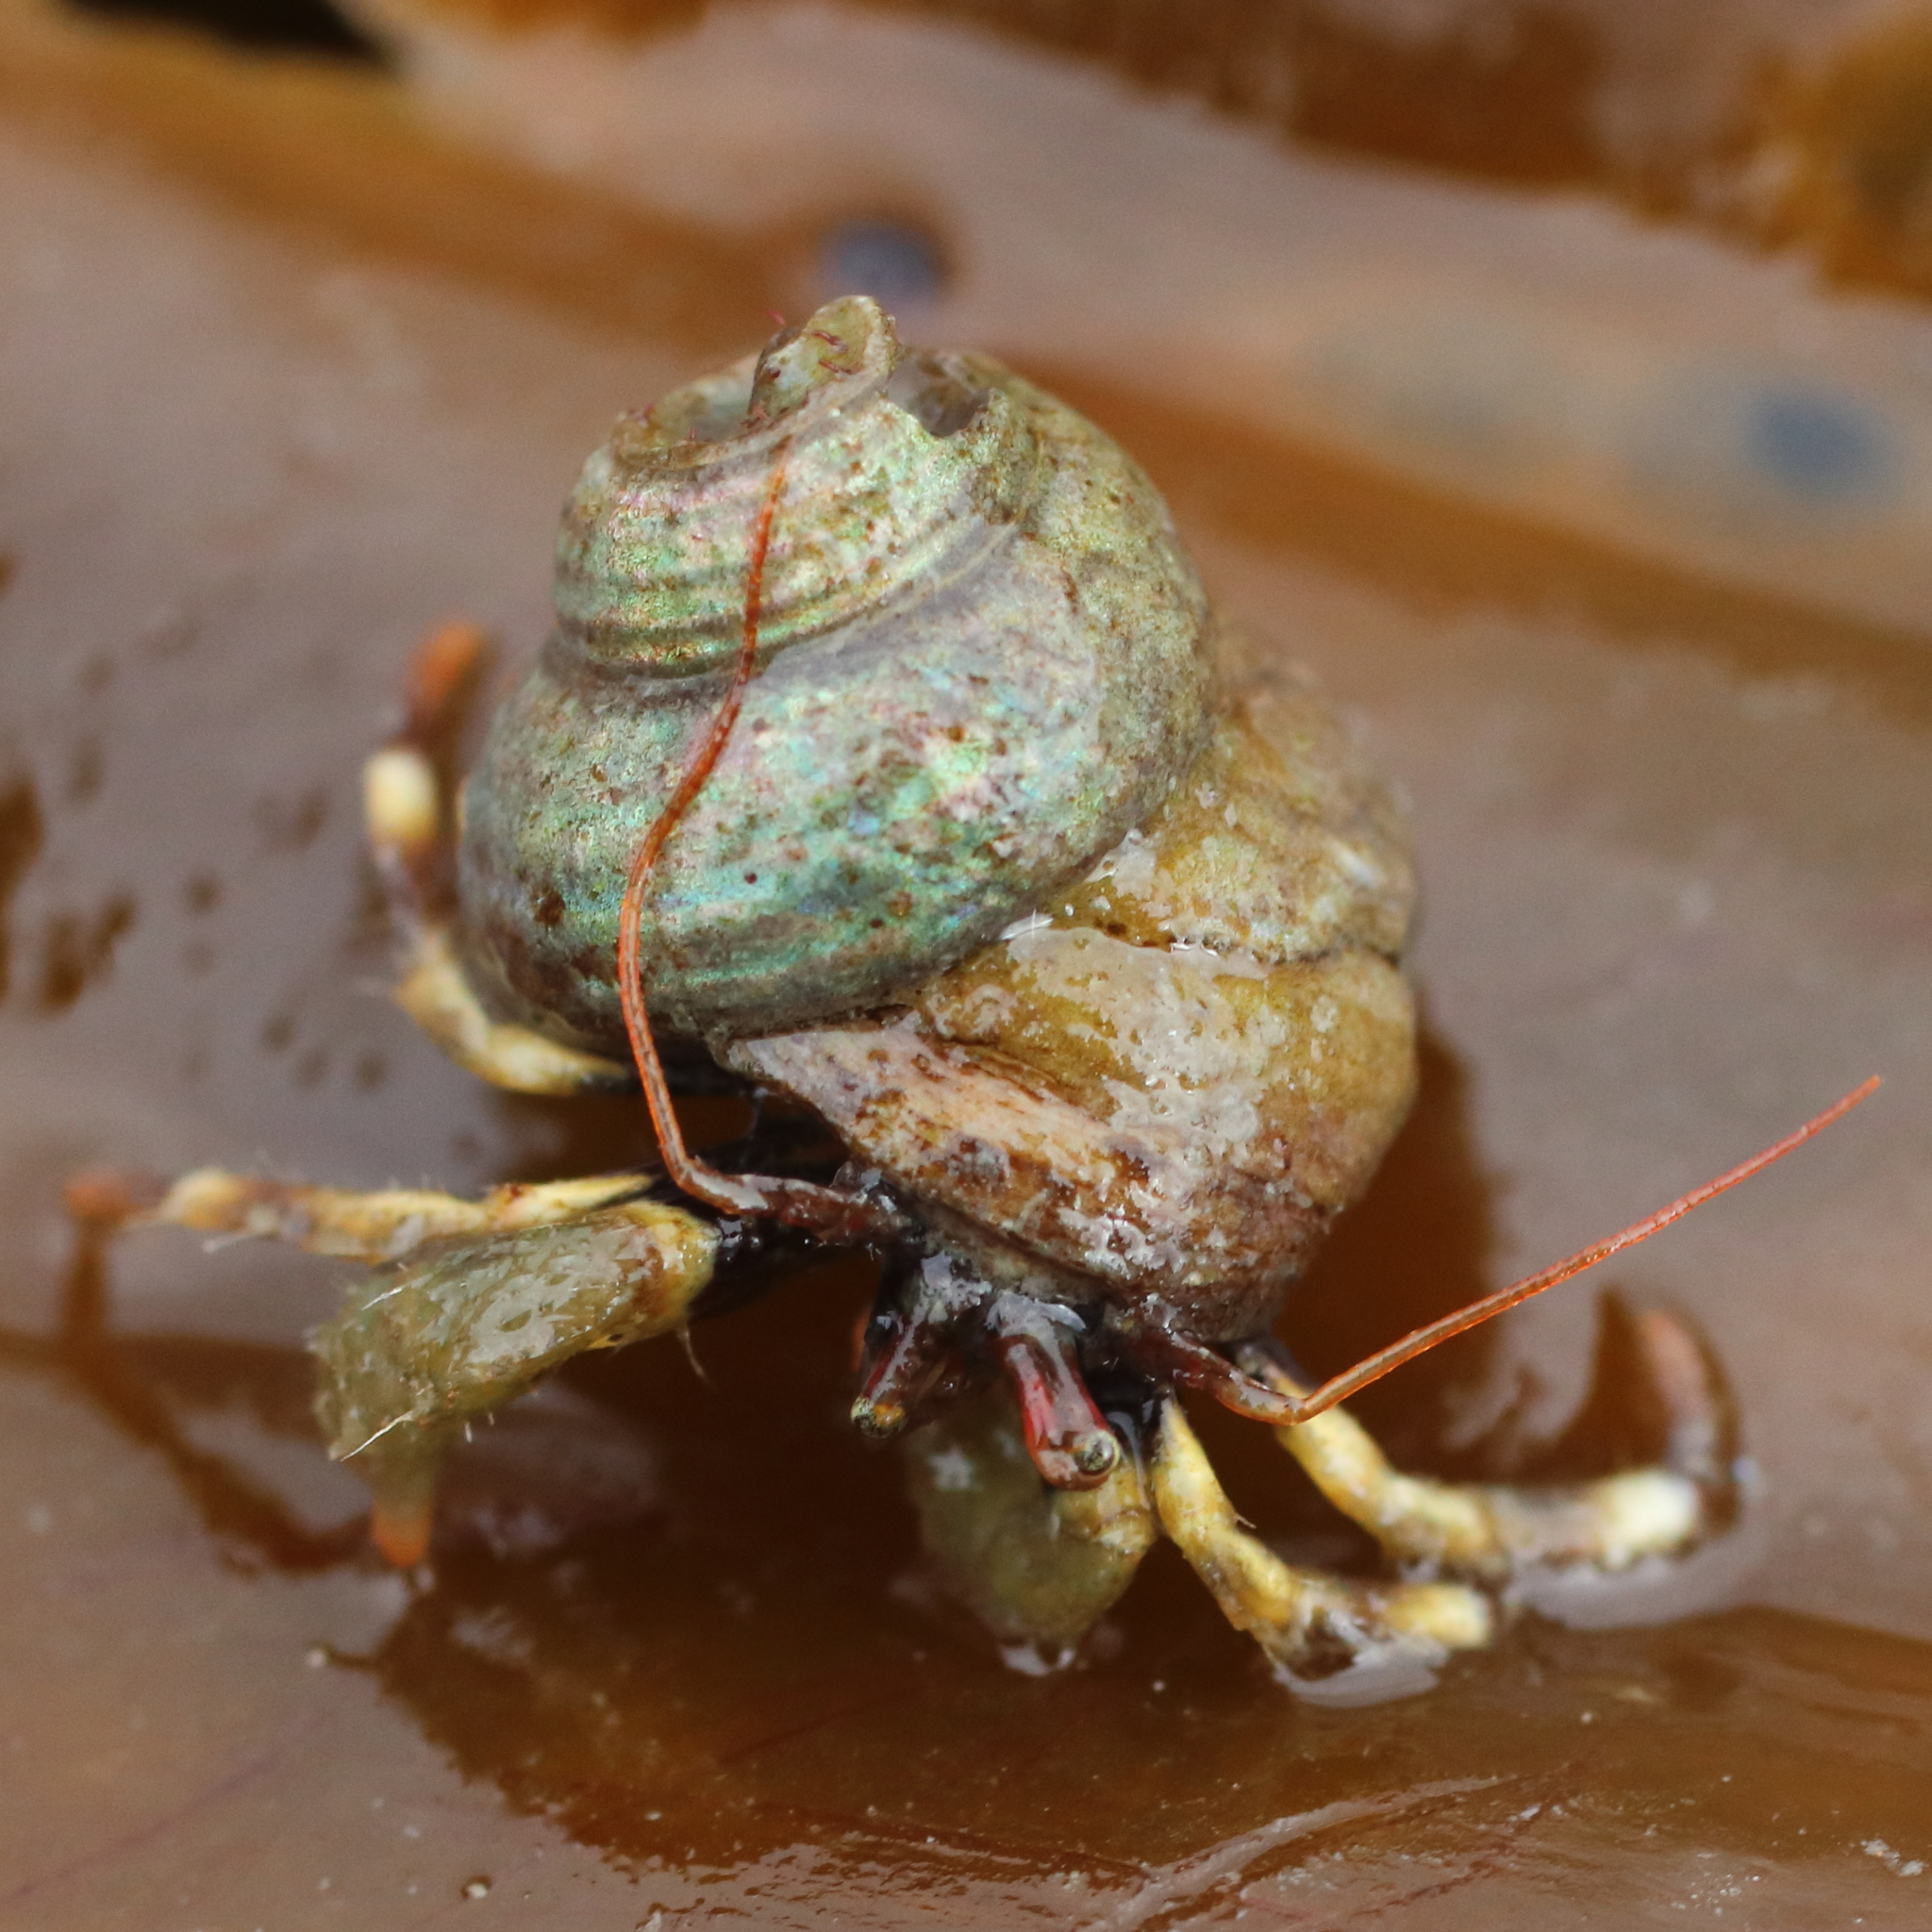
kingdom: Animalia
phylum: Arthropoda
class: Malacostraca
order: Decapoda
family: Paguridae
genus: Pagurus
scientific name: Pagurus caurinus
